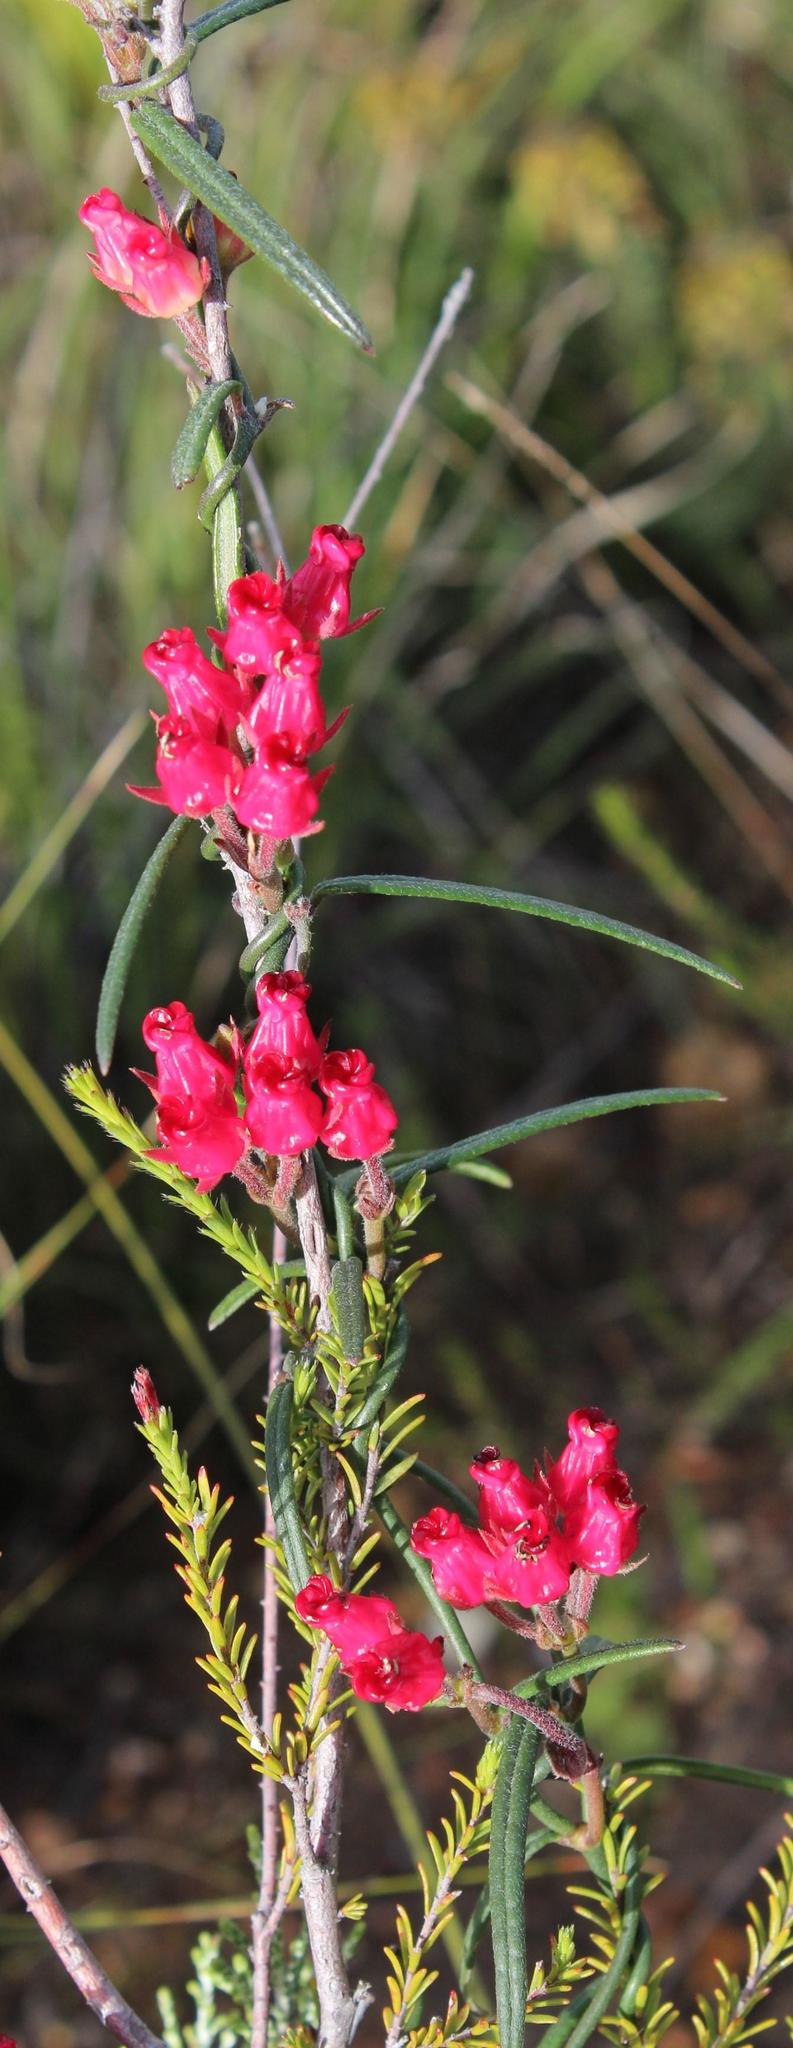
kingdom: Plantae
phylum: Tracheophyta
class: Magnoliopsida
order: Gentianales
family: Apocynaceae
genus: Microloma
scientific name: Microloma tenuifolium
